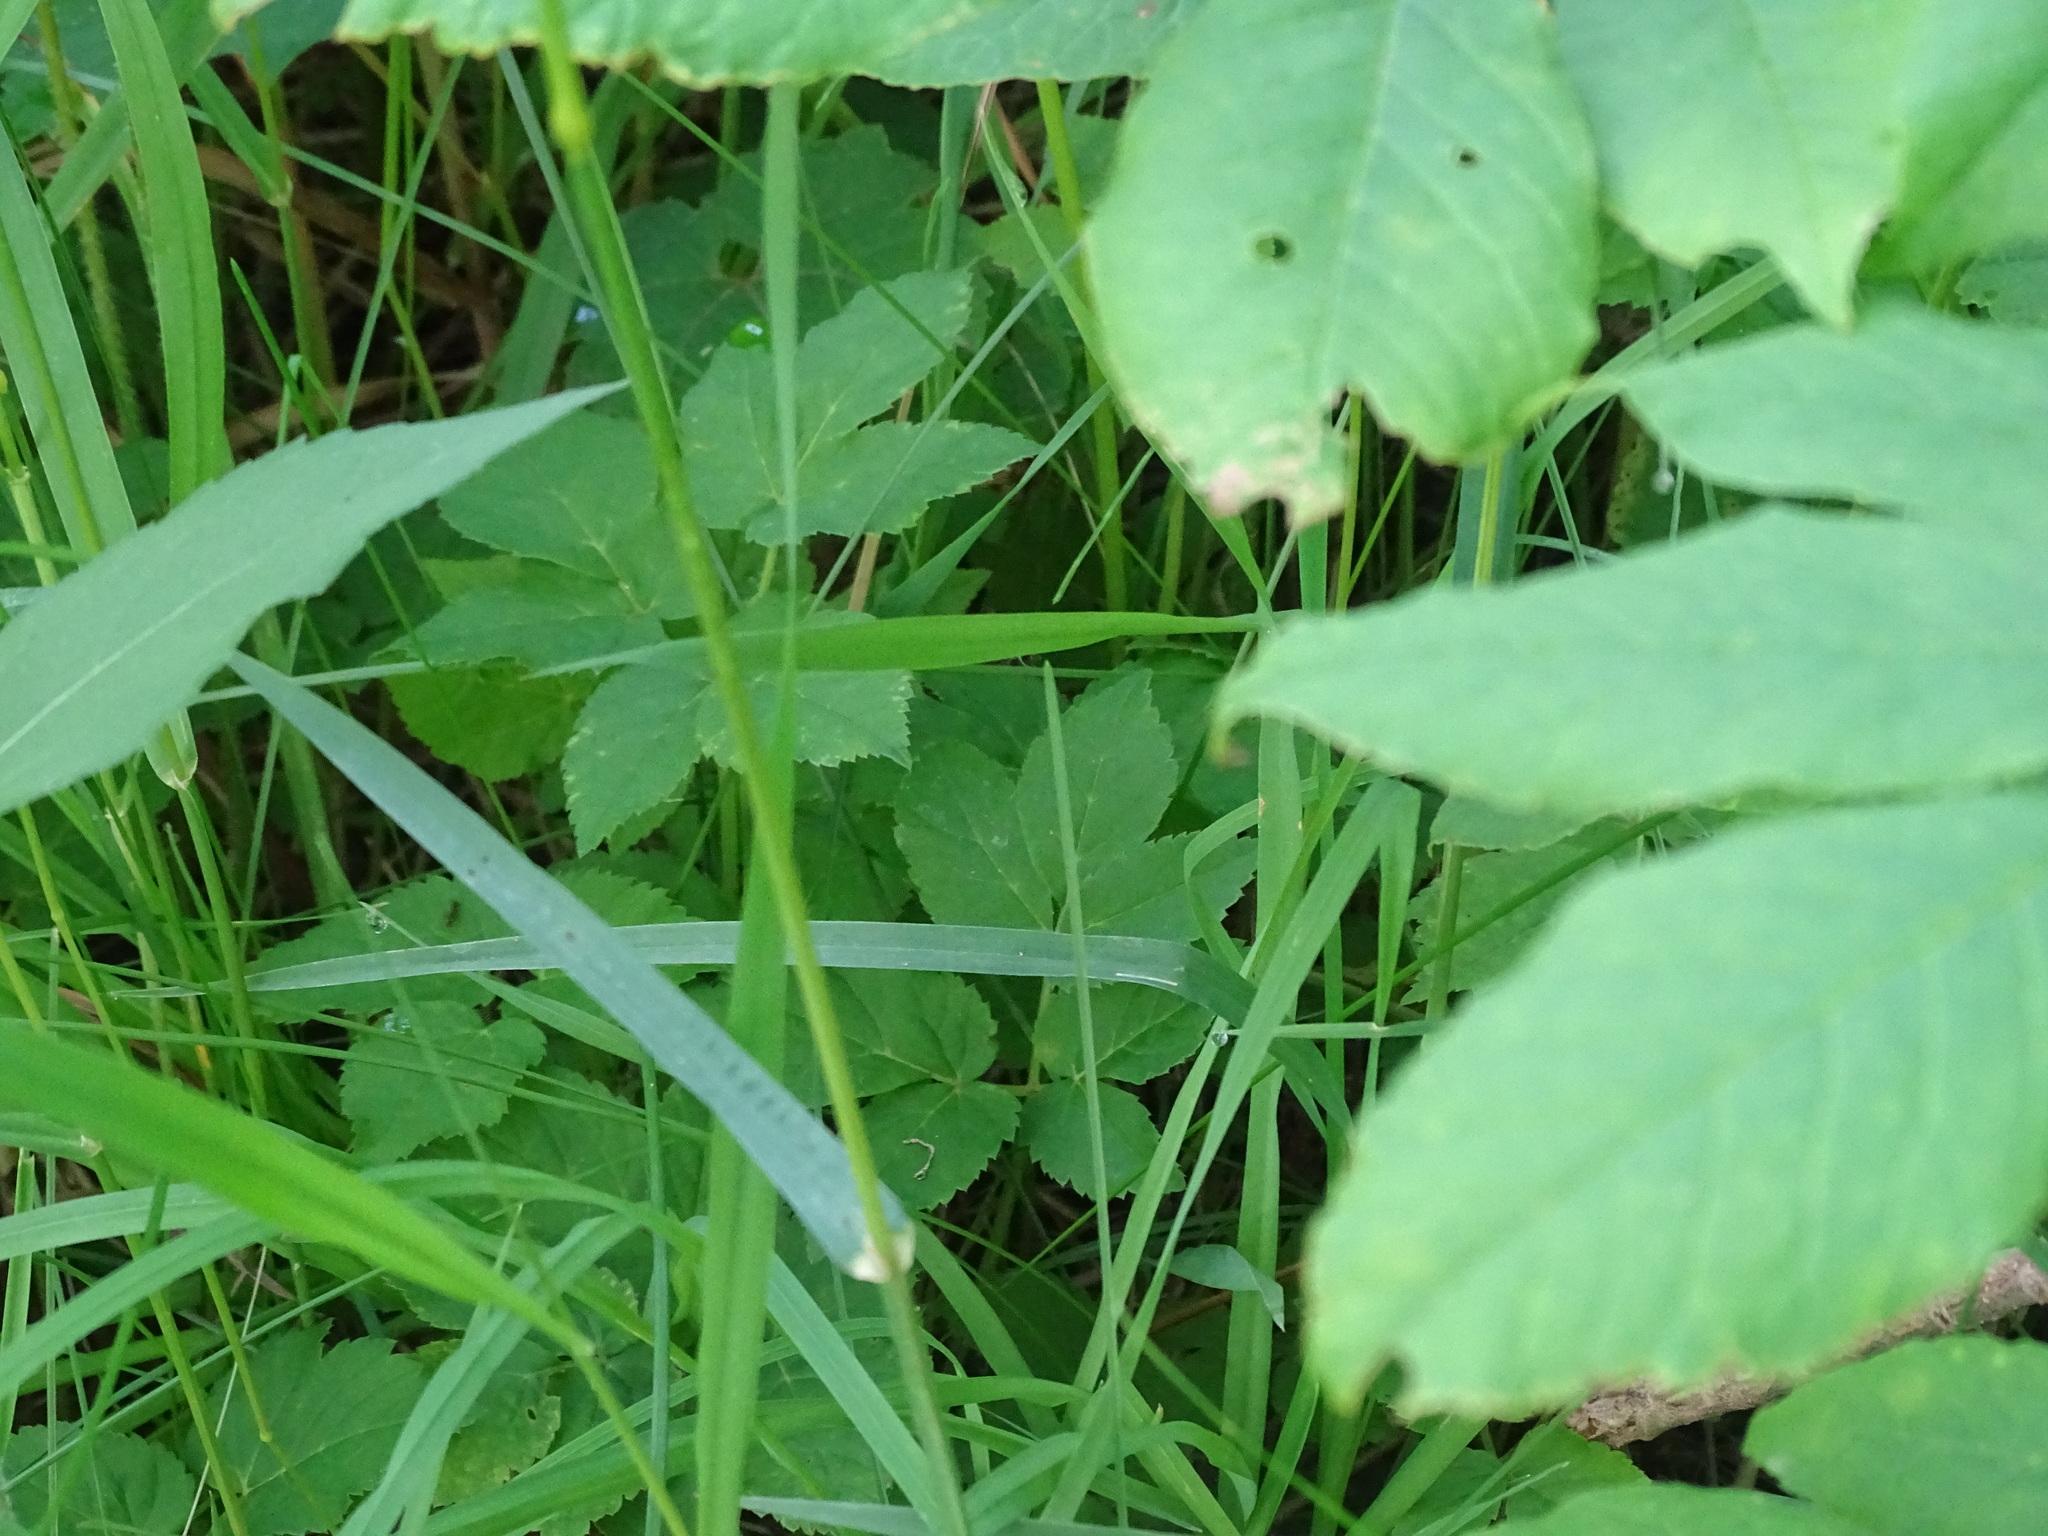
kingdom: Plantae
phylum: Tracheophyta
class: Magnoliopsida
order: Apiales
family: Apiaceae
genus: Aegopodium
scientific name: Aegopodium podagraria
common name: Ground-elder
